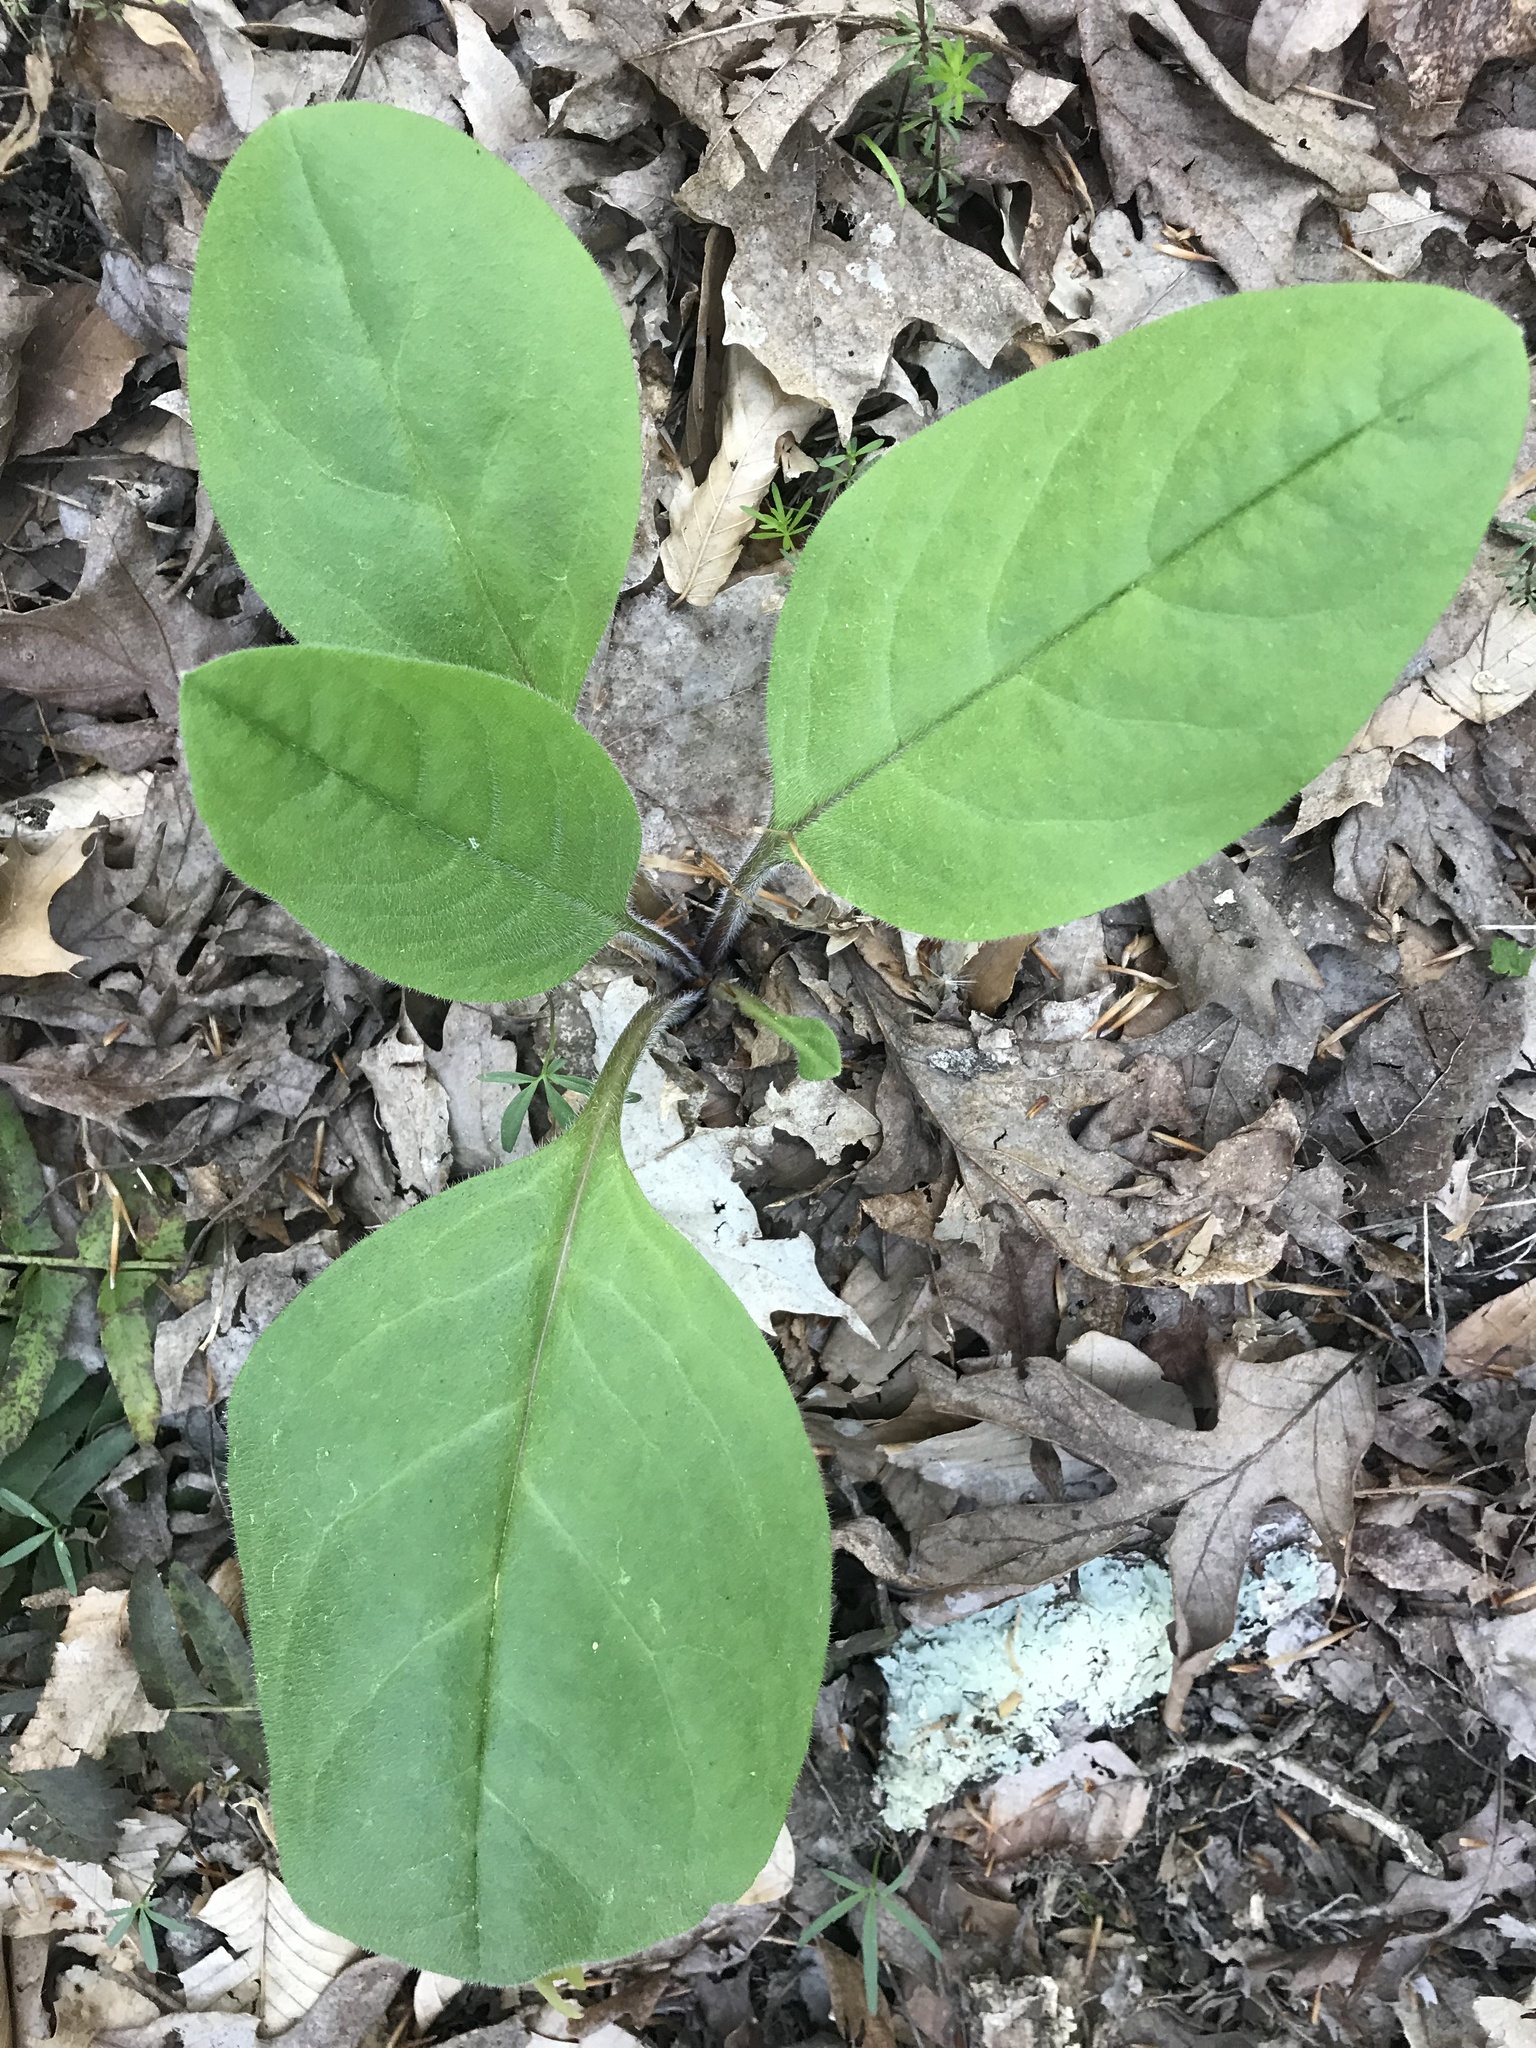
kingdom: Plantae
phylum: Tracheophyta
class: Magnoliopsida
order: Boraginales
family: Boraginaceae
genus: Andersonglossum
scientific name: Andersonglossum virginianum
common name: Wild comfrey
